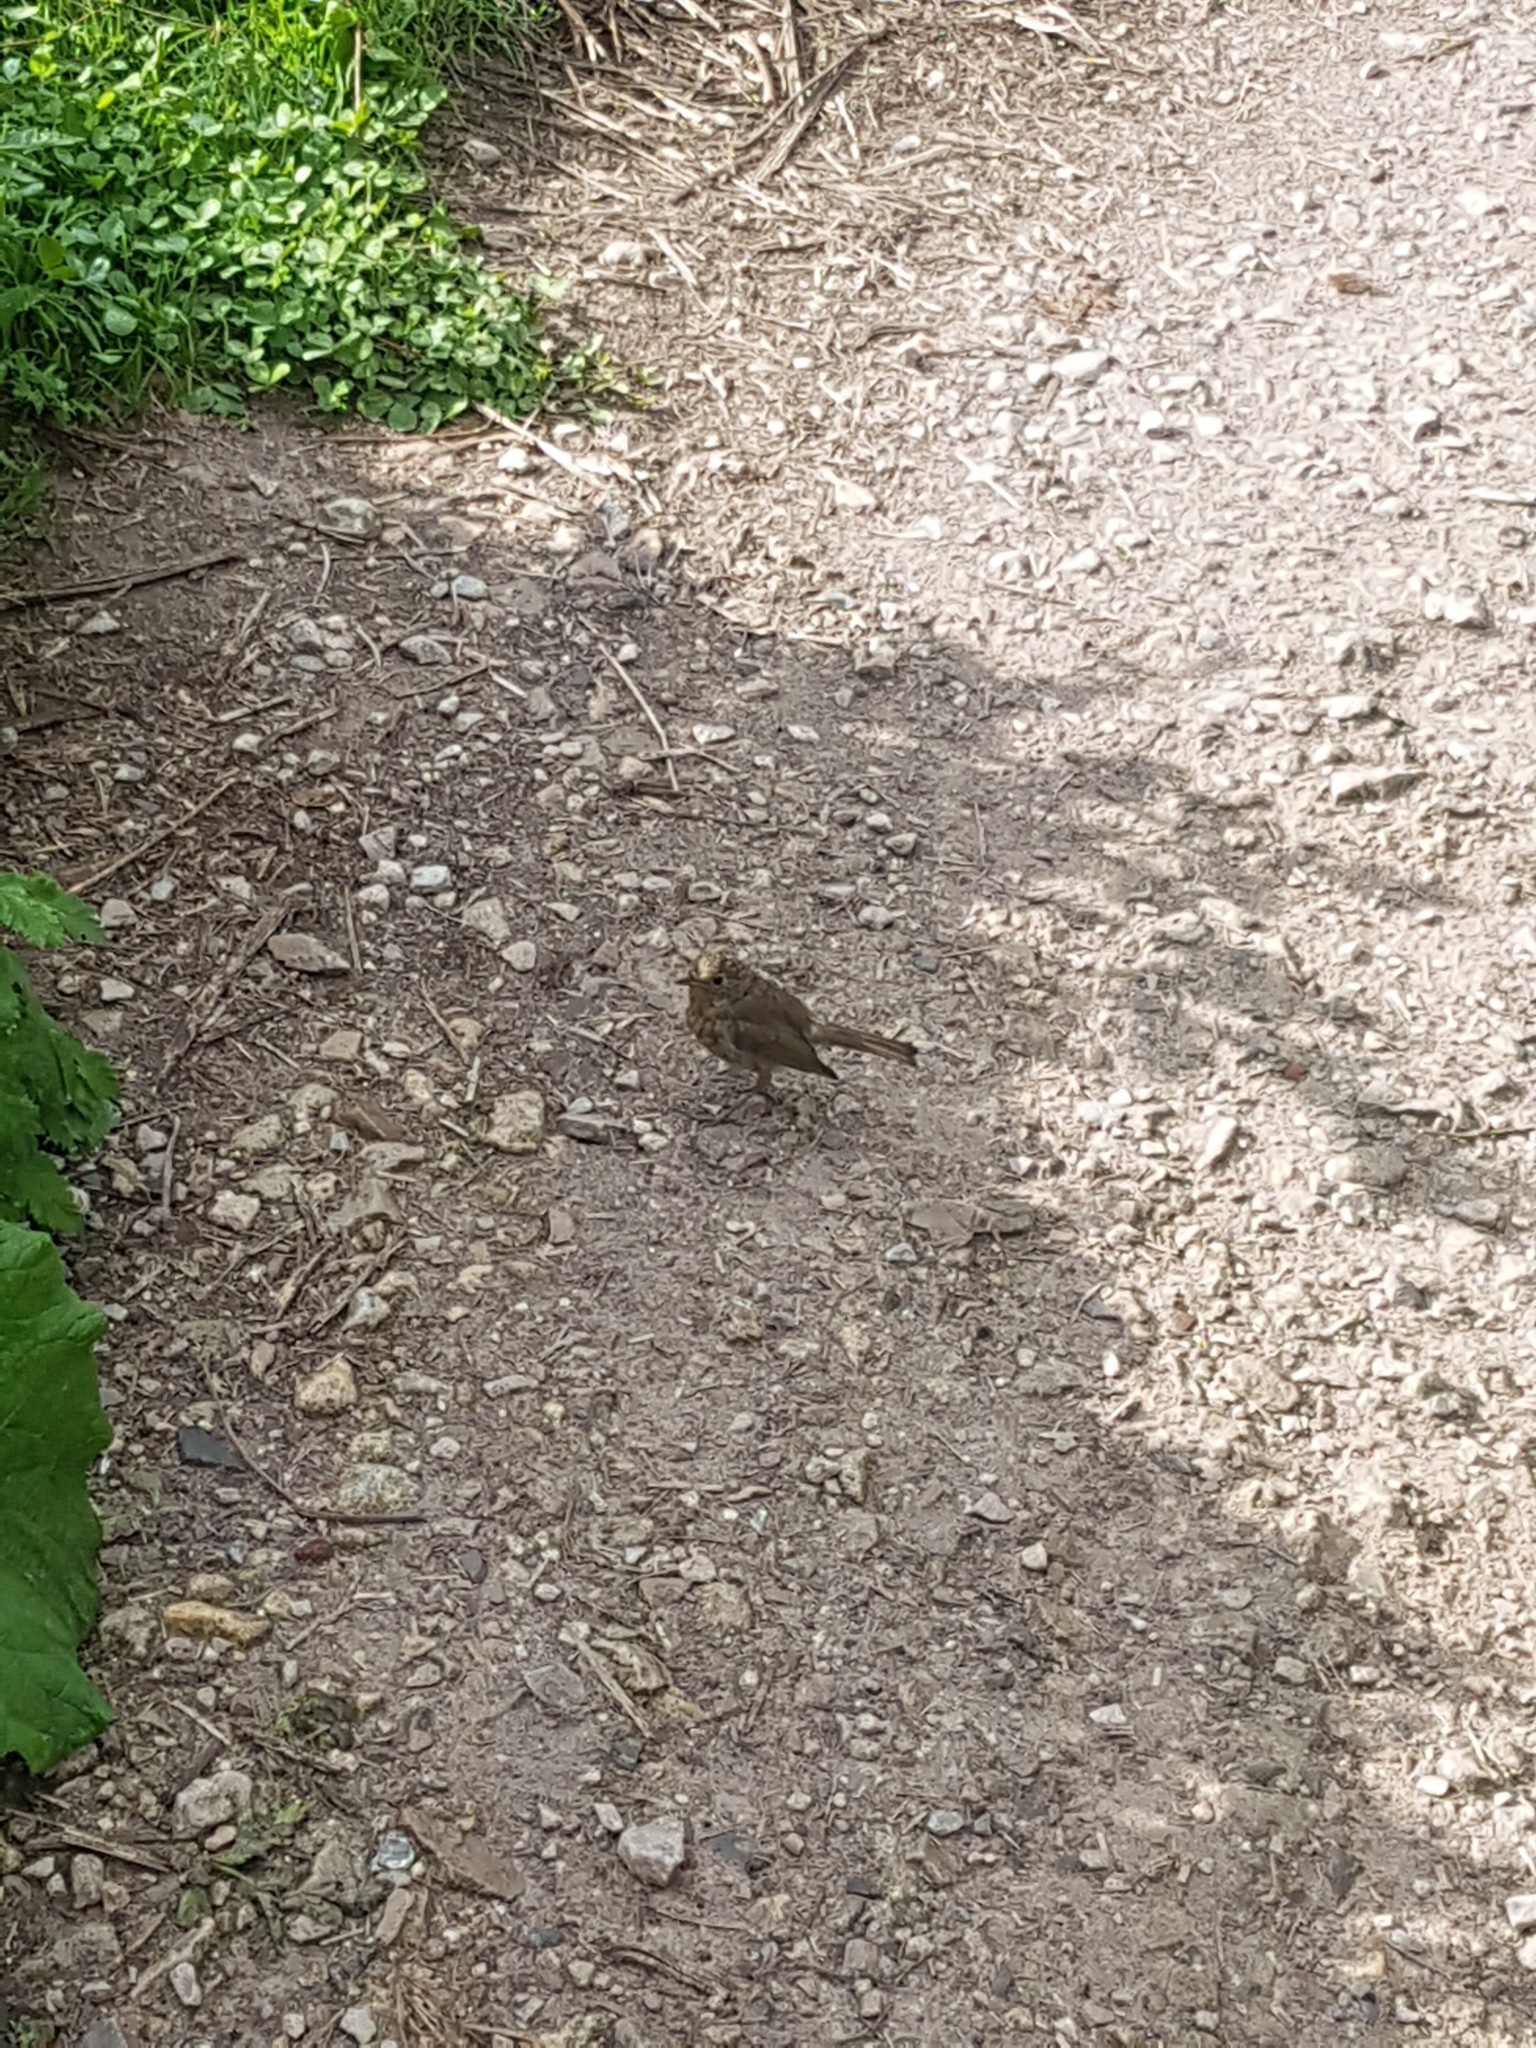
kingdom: Animalia
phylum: Chordata
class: Aves
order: Passeriformes
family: Muscicapidae
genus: Erithacus
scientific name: Erithacus rubecula
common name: European robin
